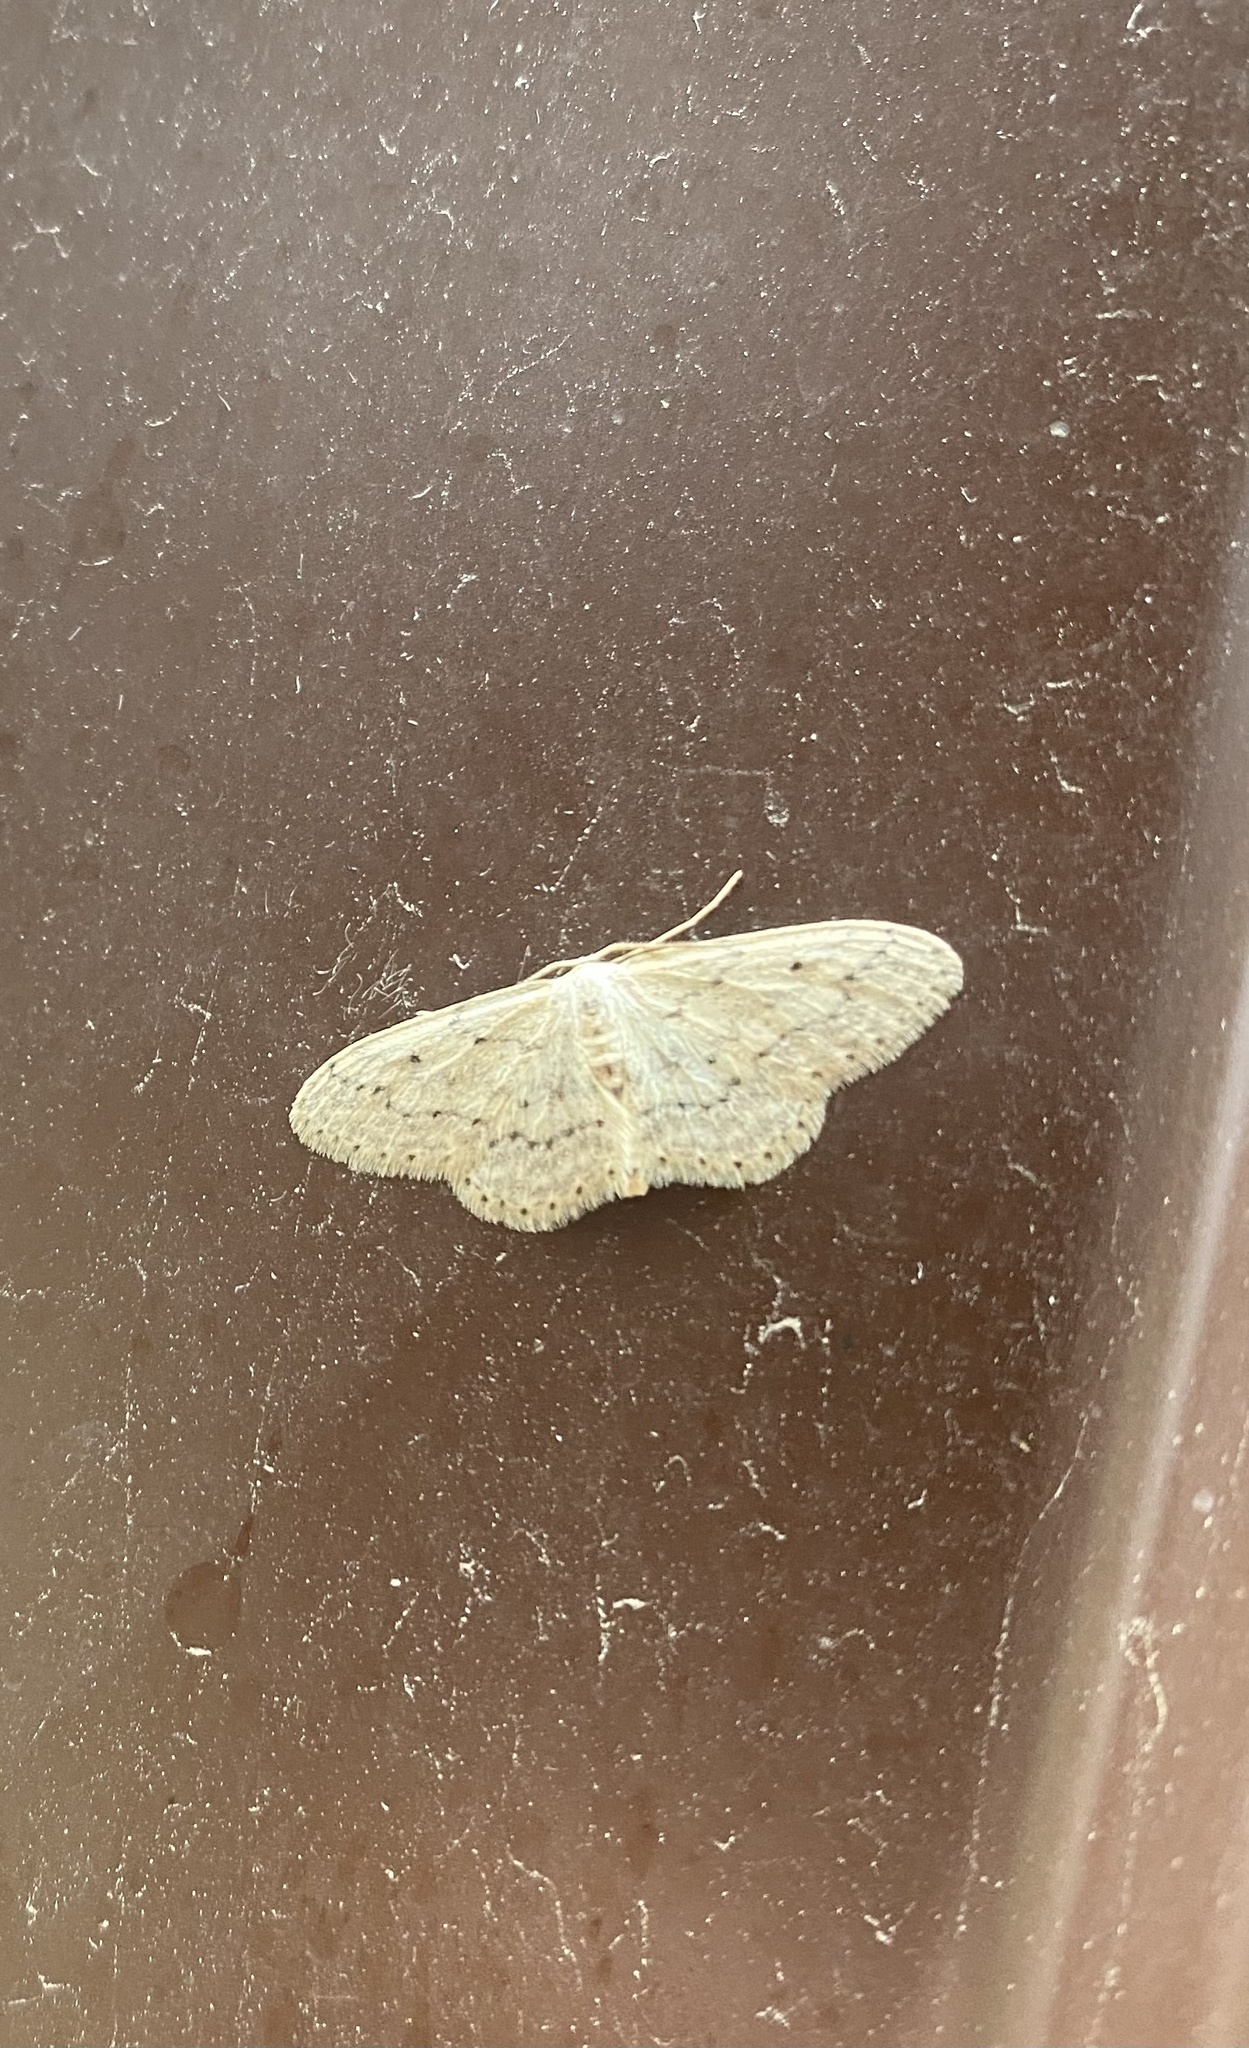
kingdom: Animalia
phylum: Arthropoda
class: Insecta
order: Lepidoptera
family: Geometridae
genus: Idaea
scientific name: Idaea seriata
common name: Small dusty wave
